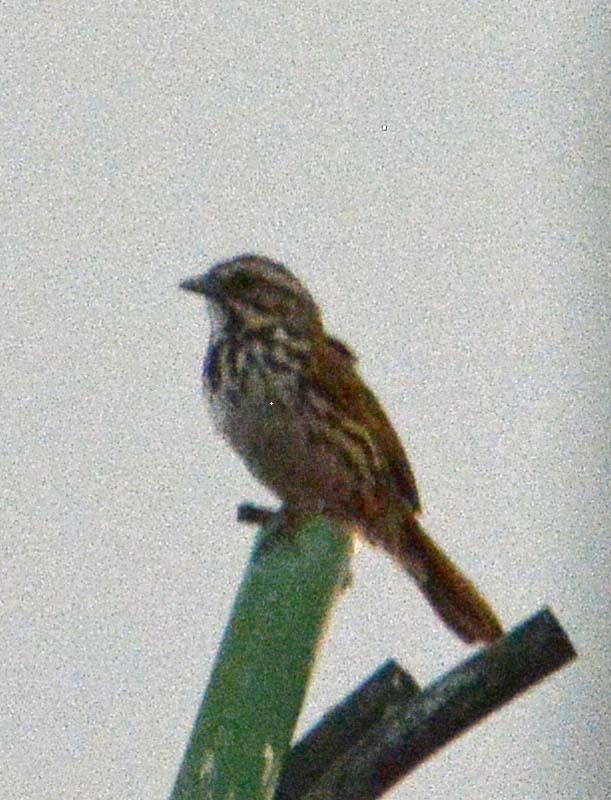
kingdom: Animalia
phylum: Chordata
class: Aves
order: Passeriformes
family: Passerellidae
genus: Melospiza
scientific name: Melospiza melodia
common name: Song sparrow
